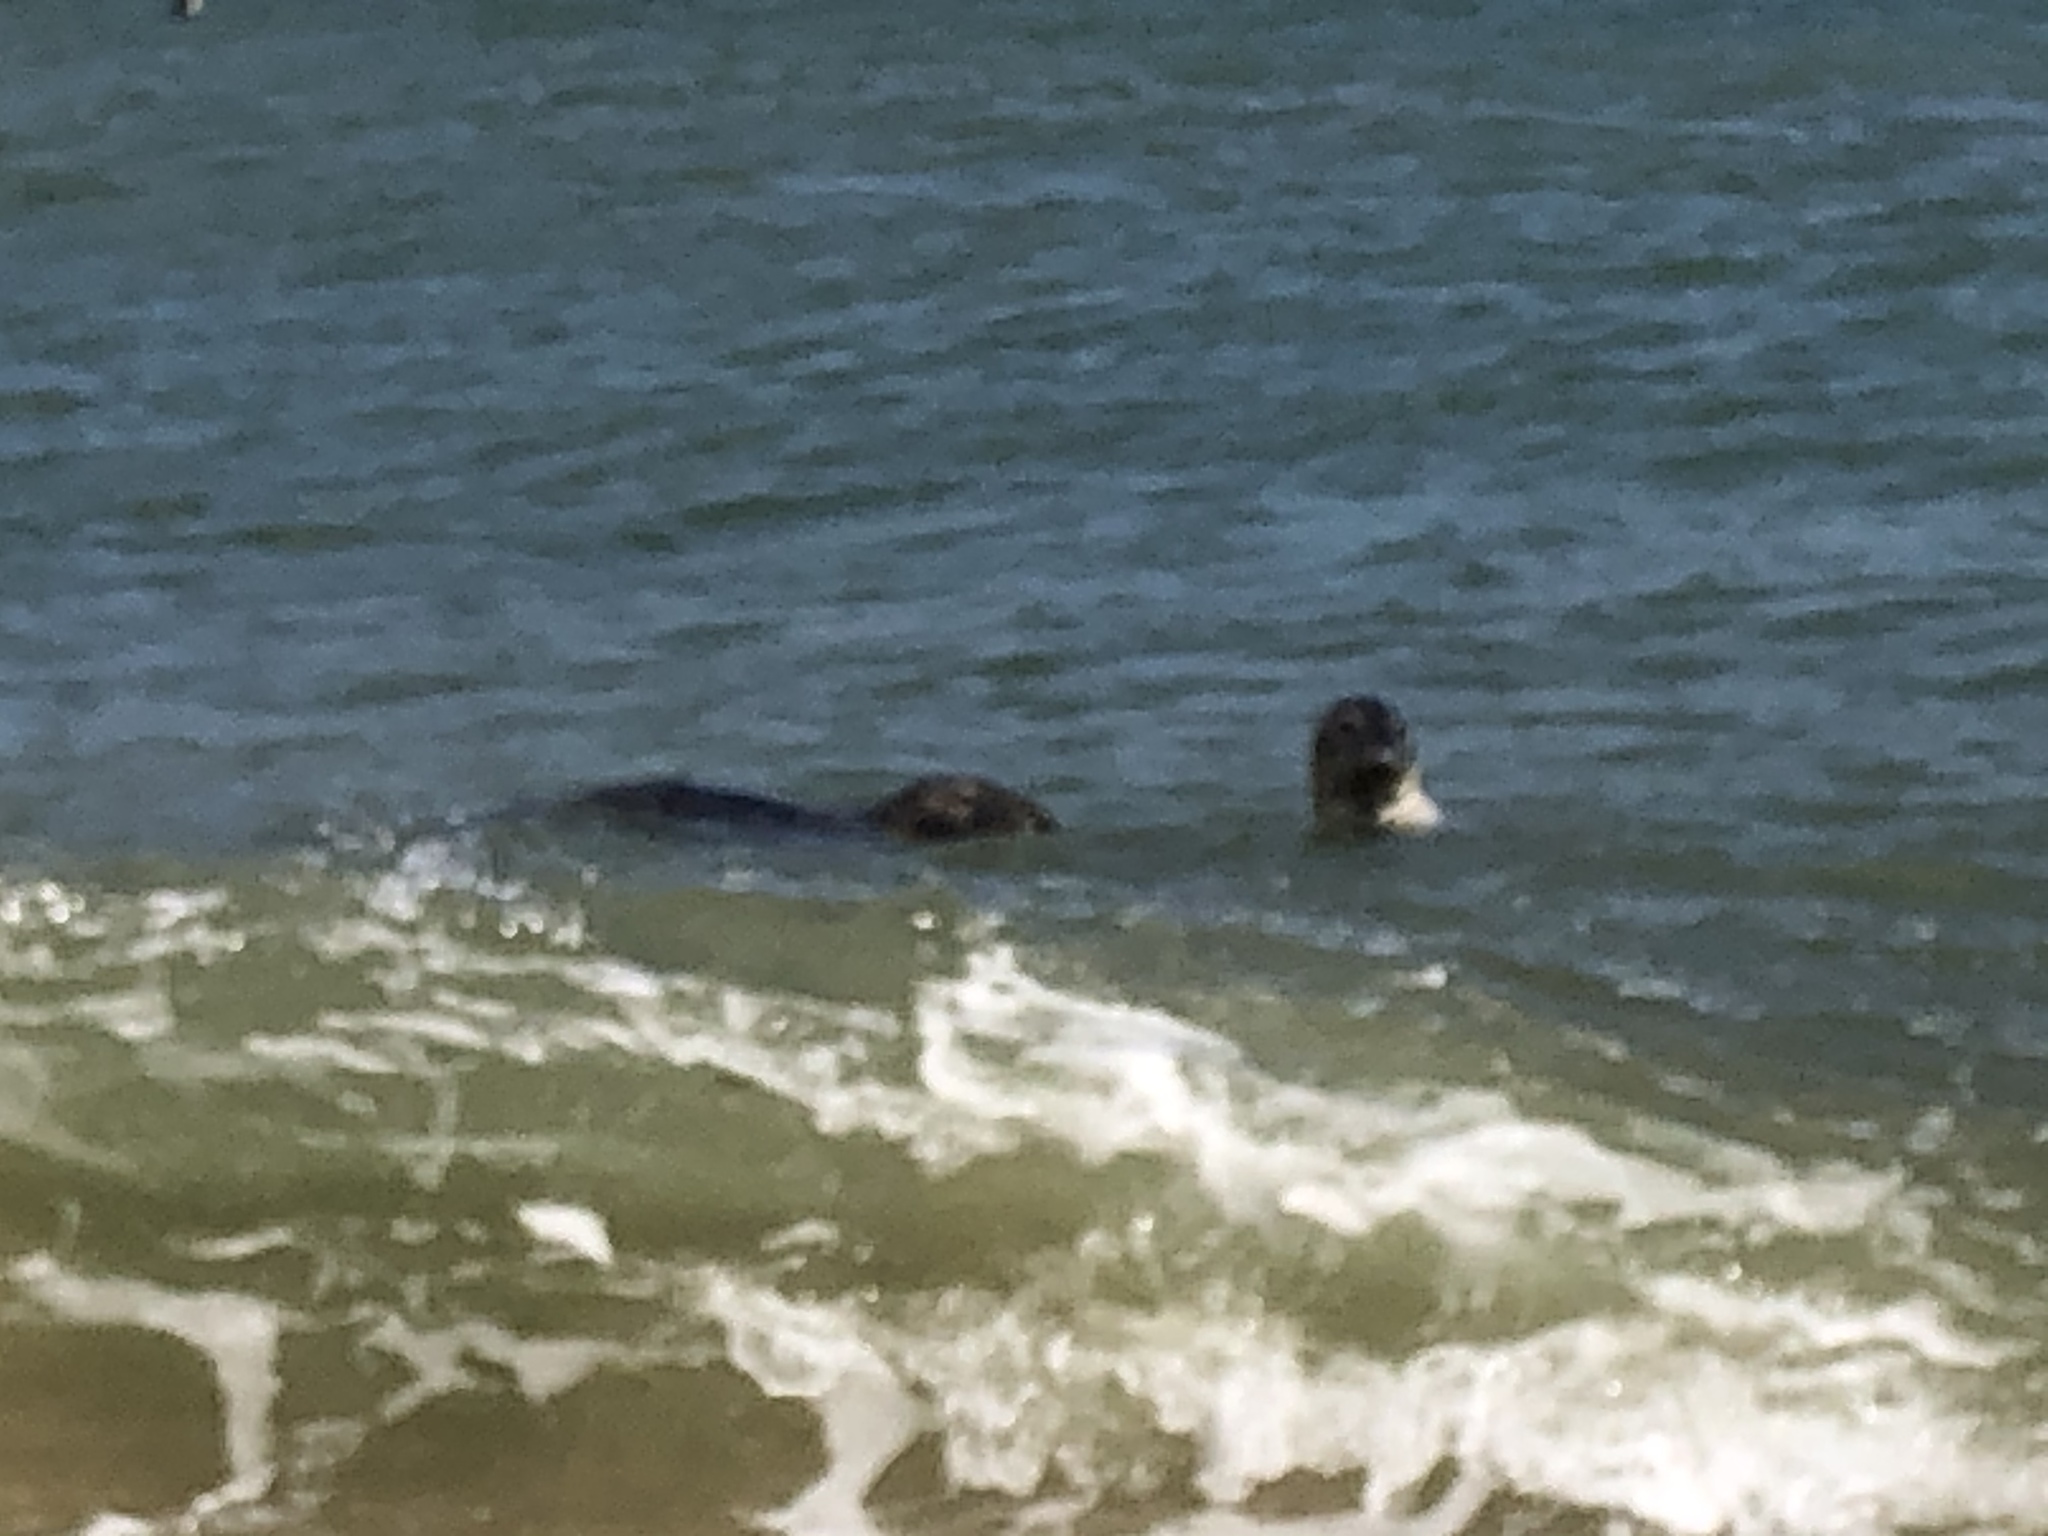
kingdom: Animalia
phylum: Chordata
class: Mammalia
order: Carnivora
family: Phocidae
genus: Halichoerus
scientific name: Halichoerus grypus
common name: Grey seal
